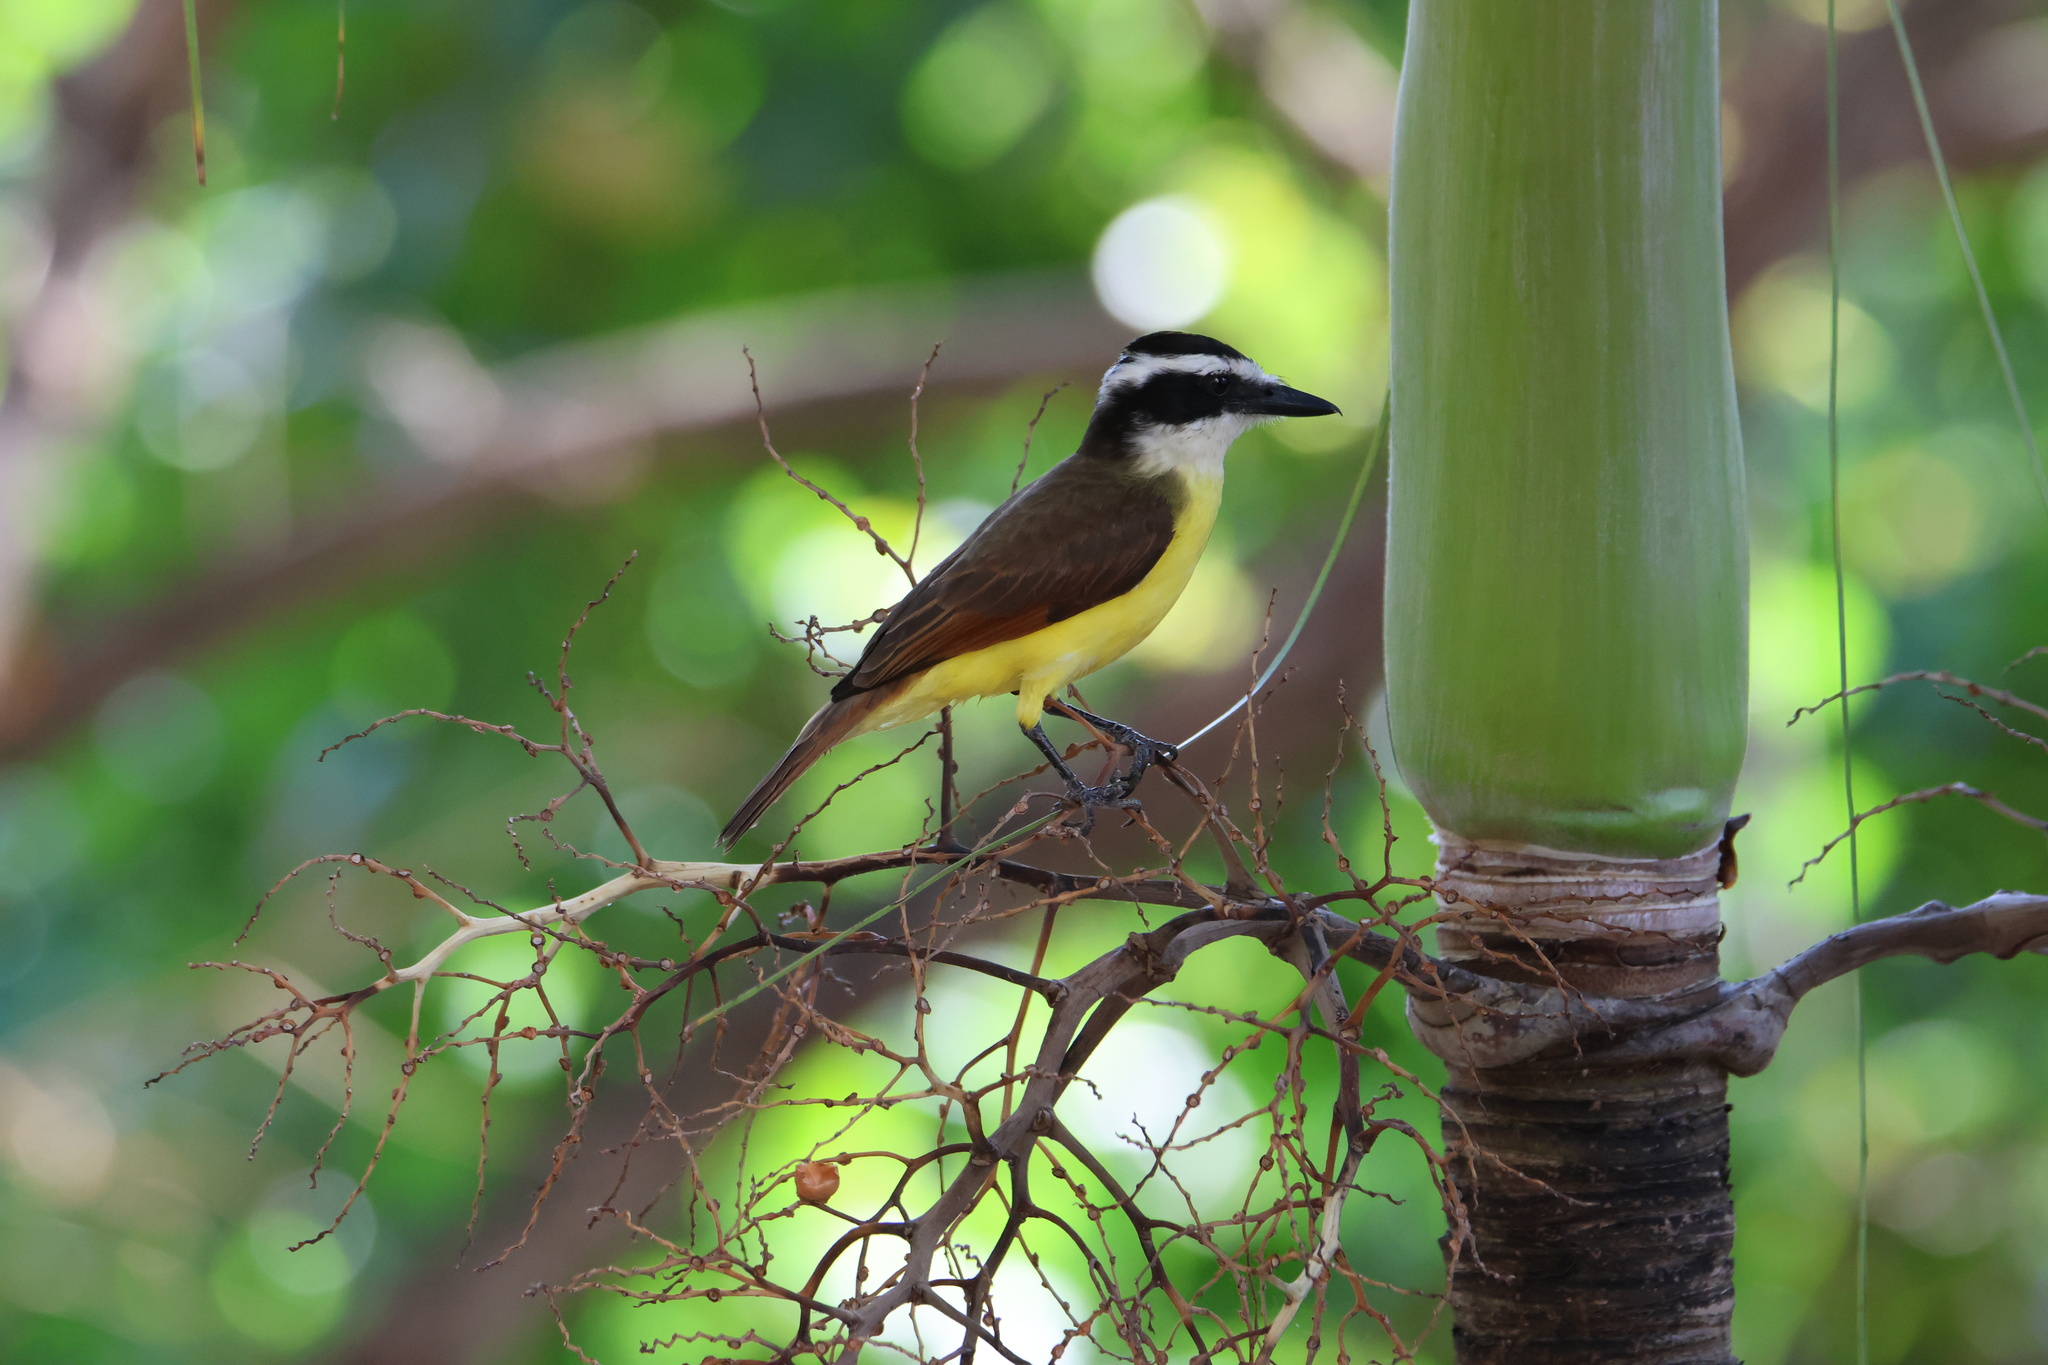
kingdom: Animalia
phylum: Chordata
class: Aves
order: Passeriformes
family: Tyrannidae
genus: Pitangus
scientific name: Pitangus sulphuratus
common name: Great kiskadee
